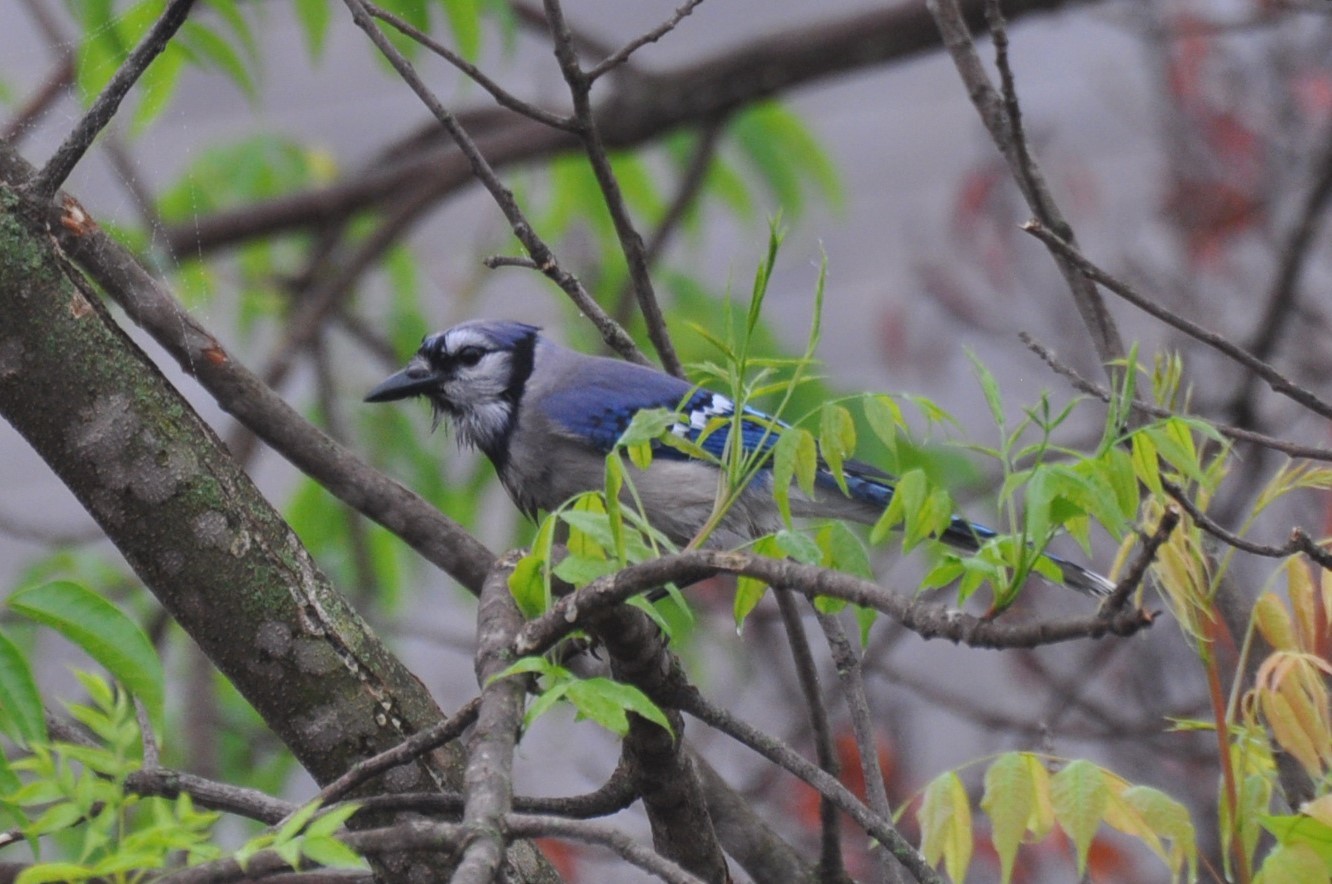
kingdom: Animalia
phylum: Chordata
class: Aves
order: Passeriformes
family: Corvidae
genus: Cyanocitta
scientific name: Cyanocitta cristata
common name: Blue jay
